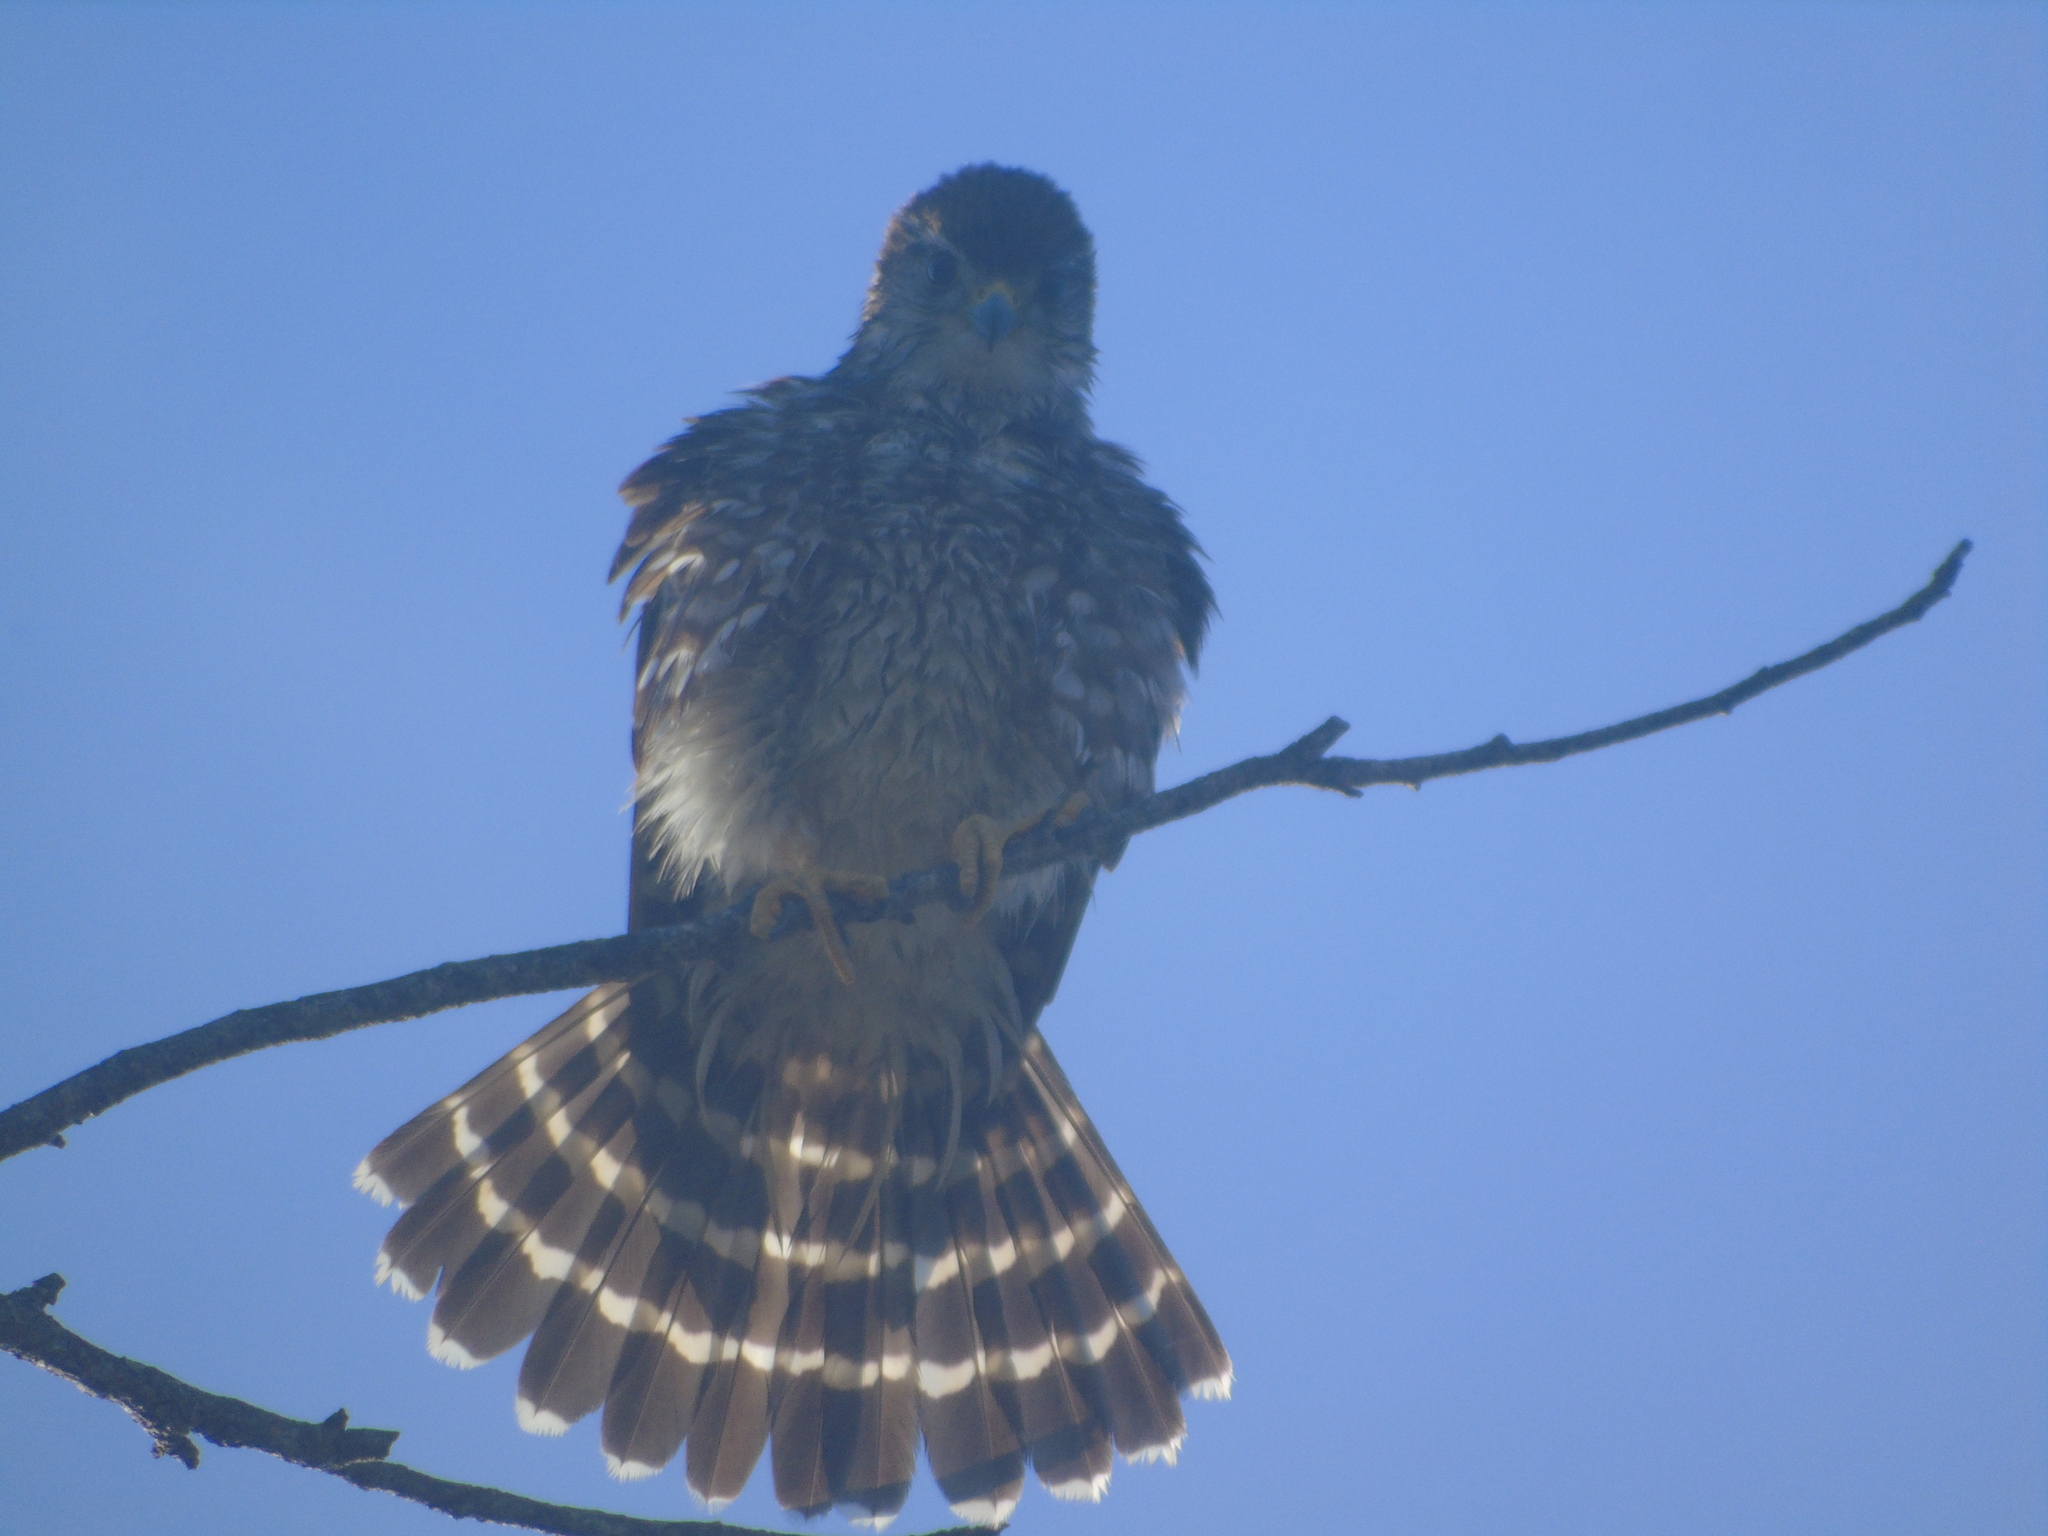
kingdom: Animalia
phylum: Chordata
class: Aves
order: Falconiformes
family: Falconidae
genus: Falco
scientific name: Falco columbarius
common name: Merlin
